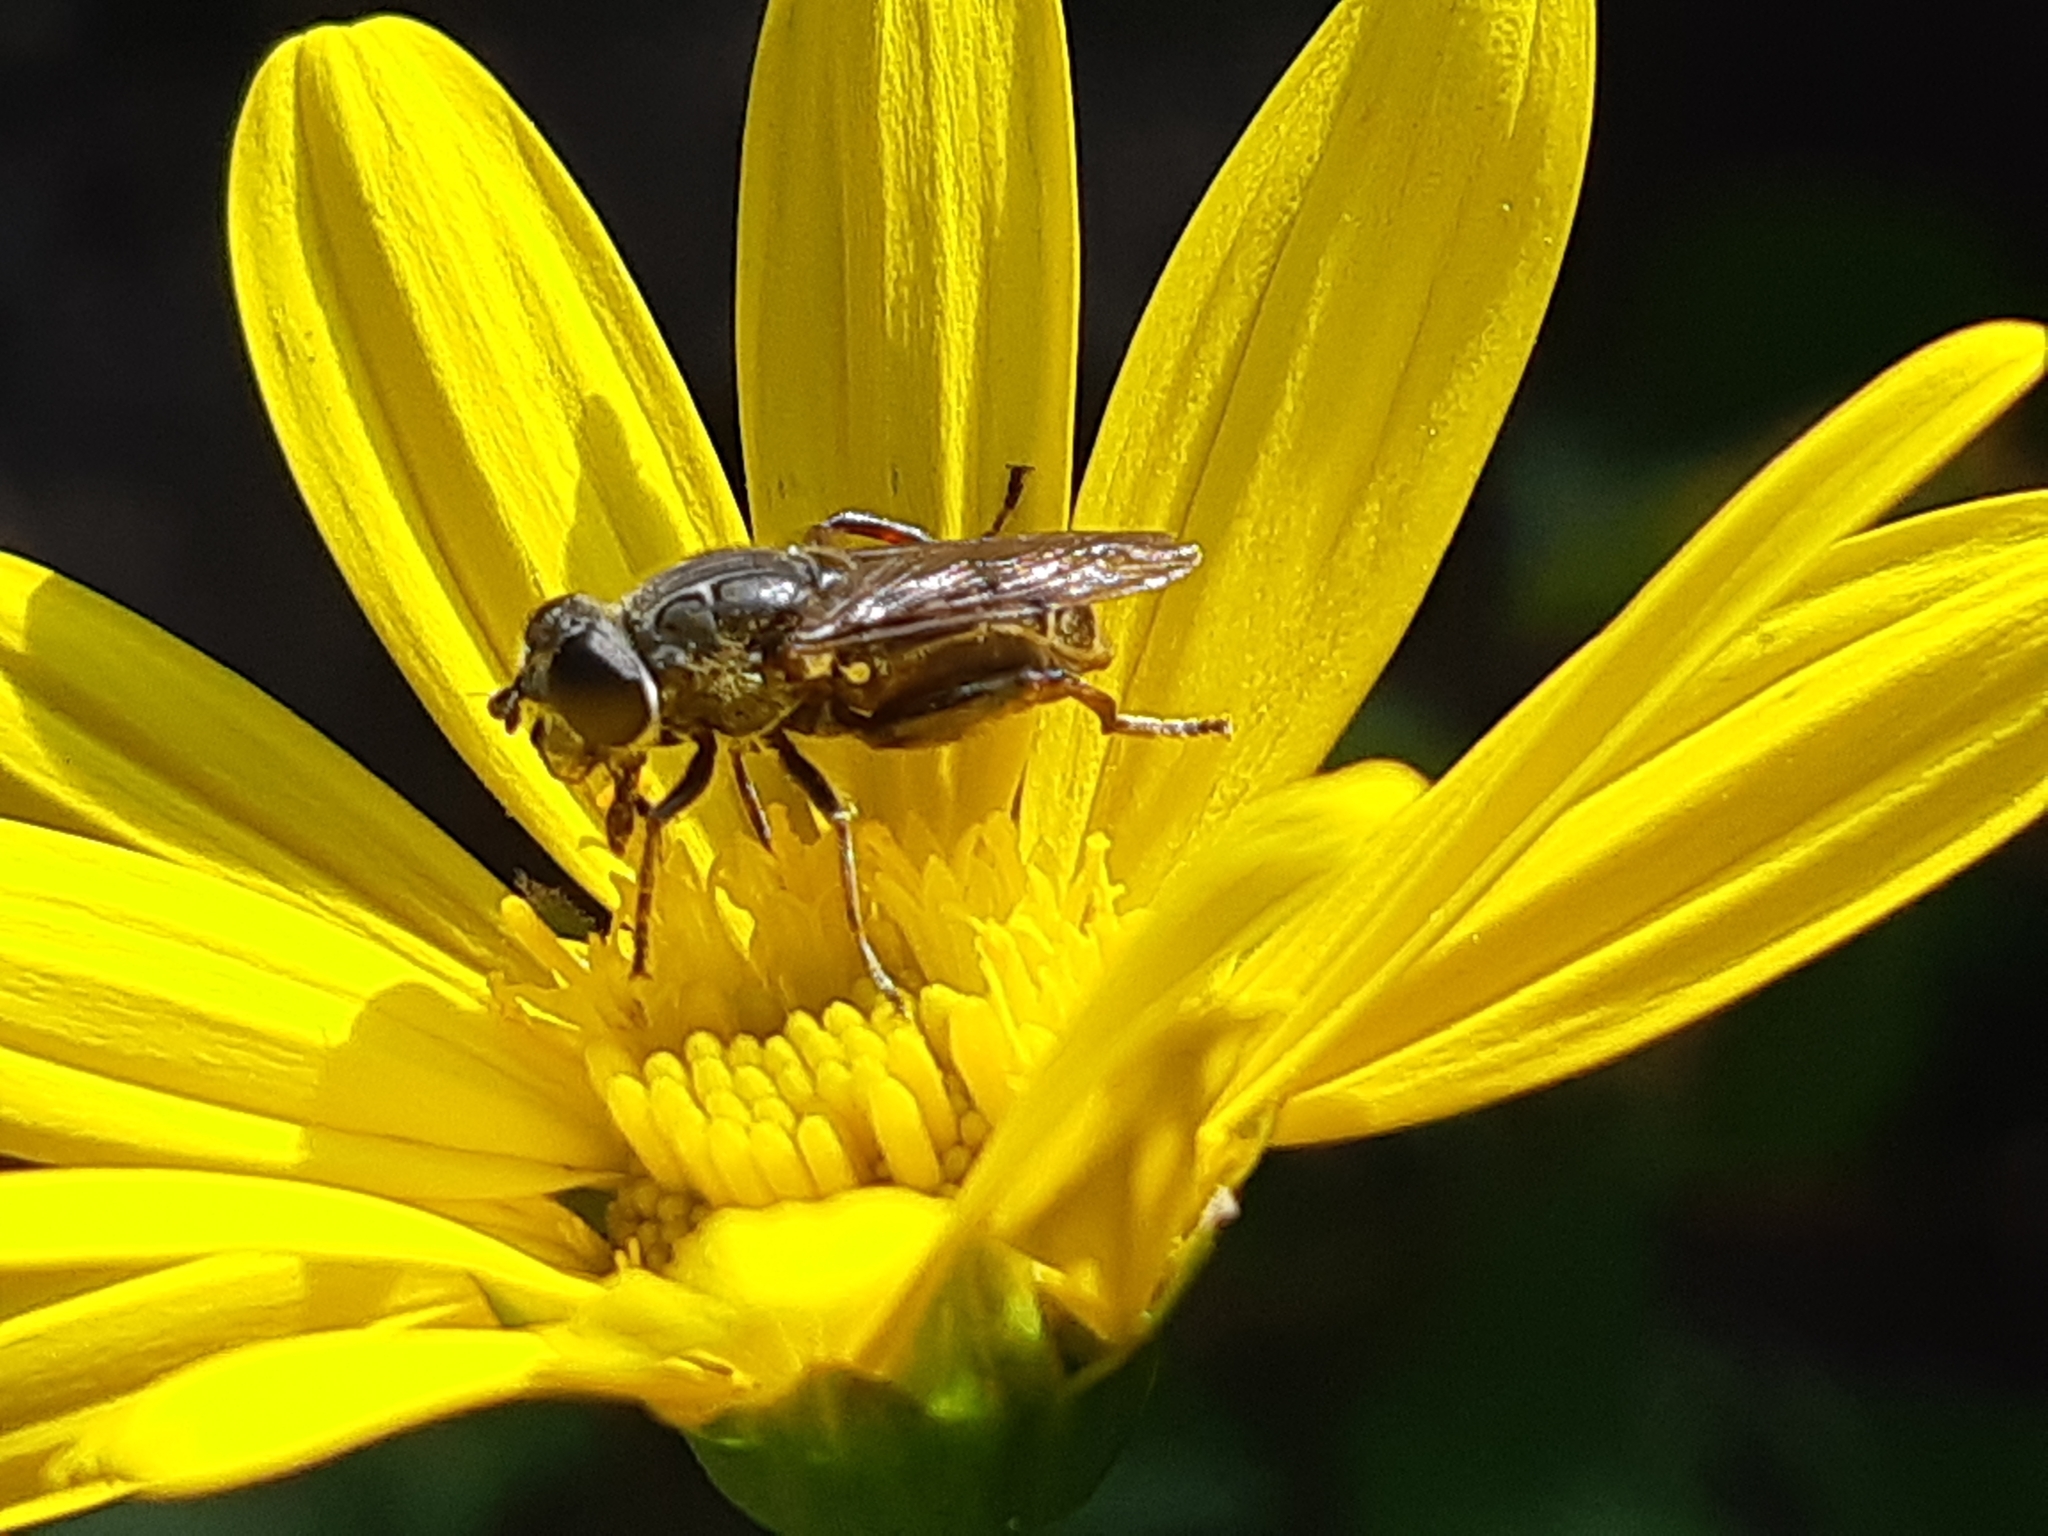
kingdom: Animalia
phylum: Arthropoda
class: Insecta
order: Diptera
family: Syrphidae
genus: Asemosyrphus
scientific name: Asemosyrphus
